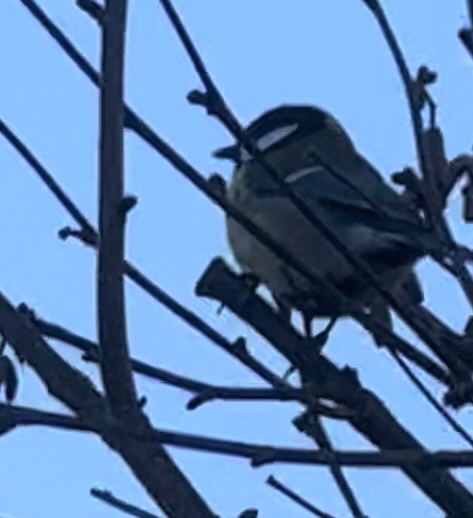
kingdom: Animalia
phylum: Chordata
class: Aves
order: Passeriformes
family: Paridae
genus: Parus
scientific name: Parus major
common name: Great tit
